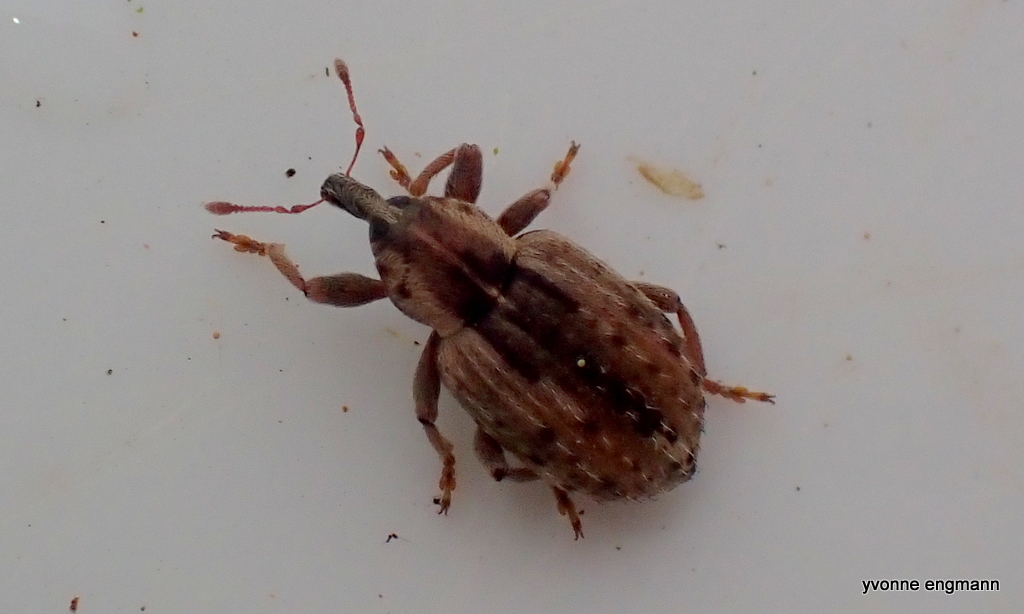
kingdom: Animalia
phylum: Arthropoda
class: Insecta
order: Coleoptera
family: Curculionidae
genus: Hypera
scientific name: Hypera postica
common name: Weevil
